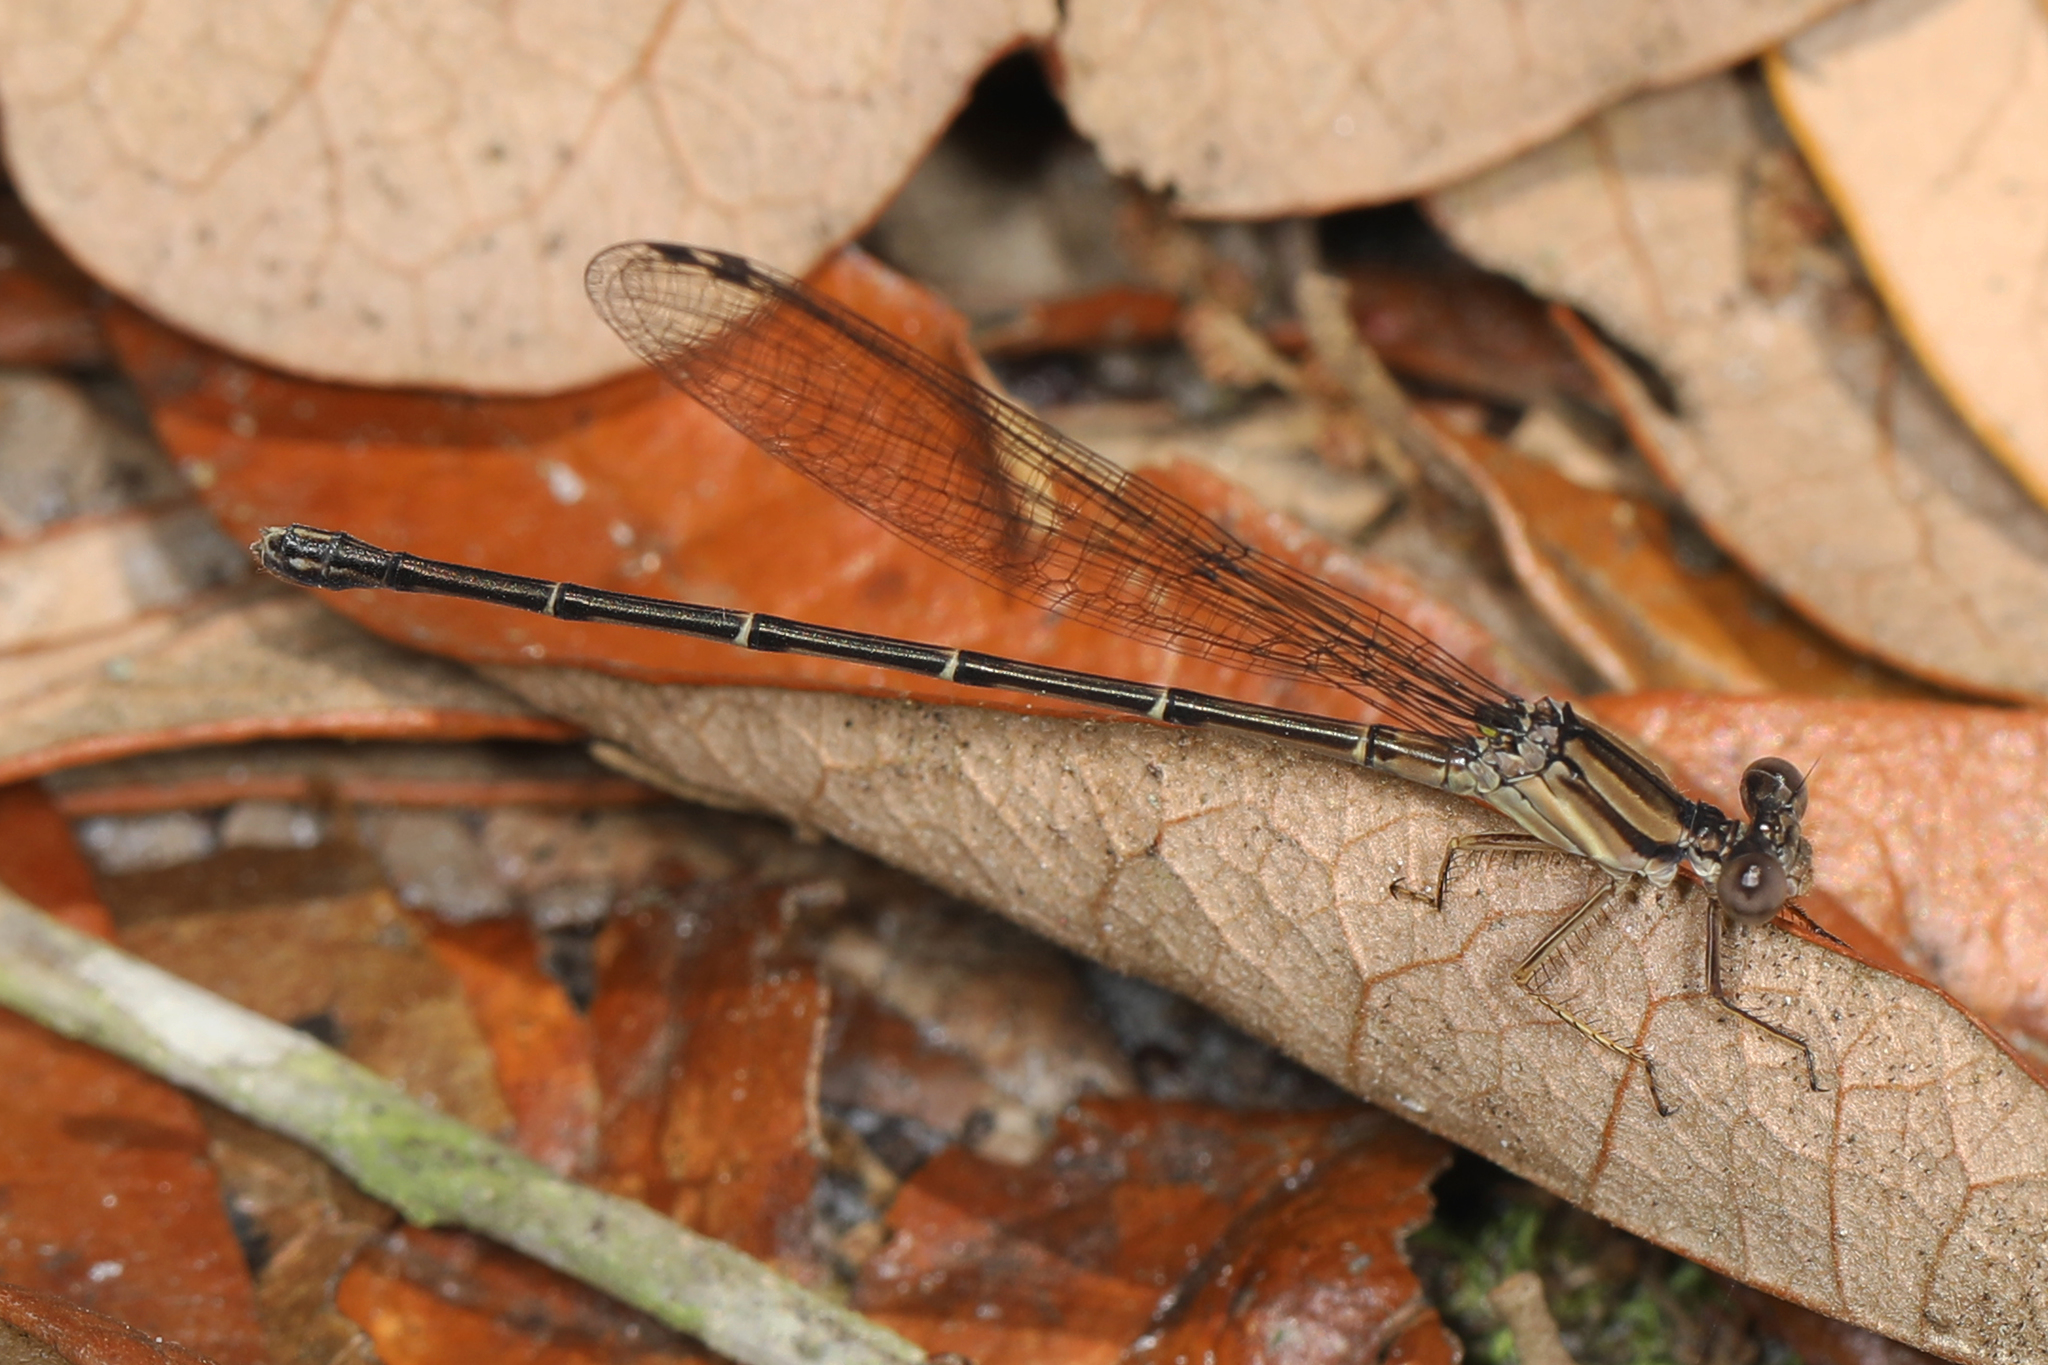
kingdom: Animalia
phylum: Arthropoda
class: Insecta
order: Odonata
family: Coenagrionidae
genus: Argia
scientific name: Argia tibialis
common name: Blue-tipped dancer
